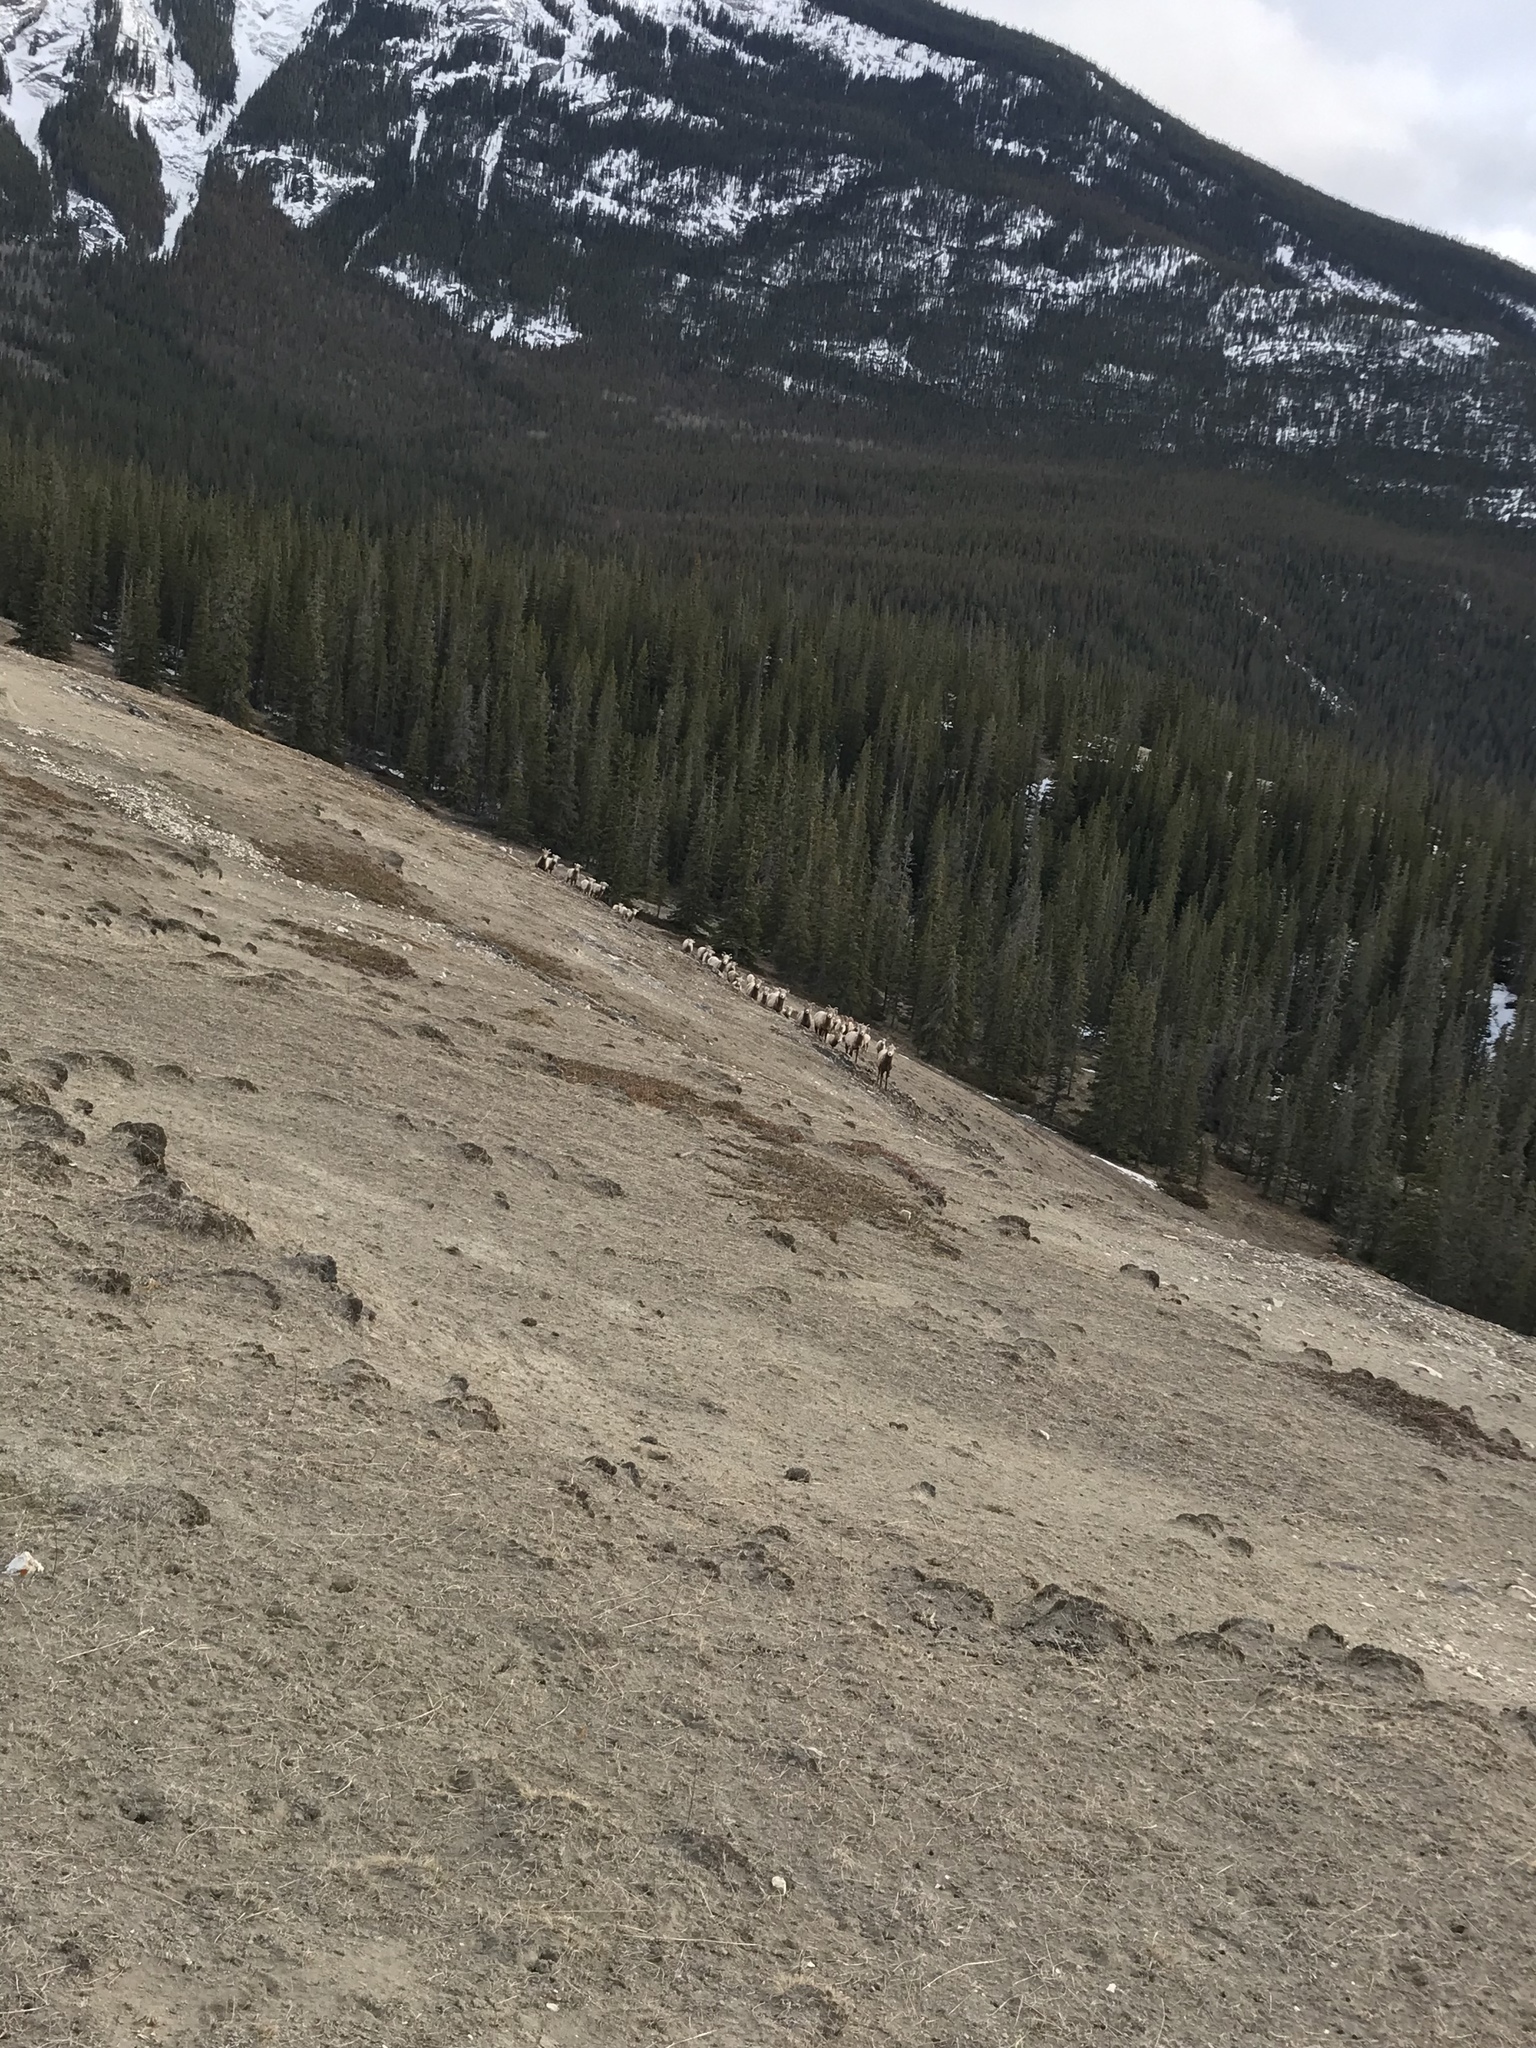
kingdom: Animalia
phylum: Chordata
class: Mammalia
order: Artiodactyla
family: Bovidae
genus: Ovis
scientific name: Ovis canadensis
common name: Bighorn sheep
